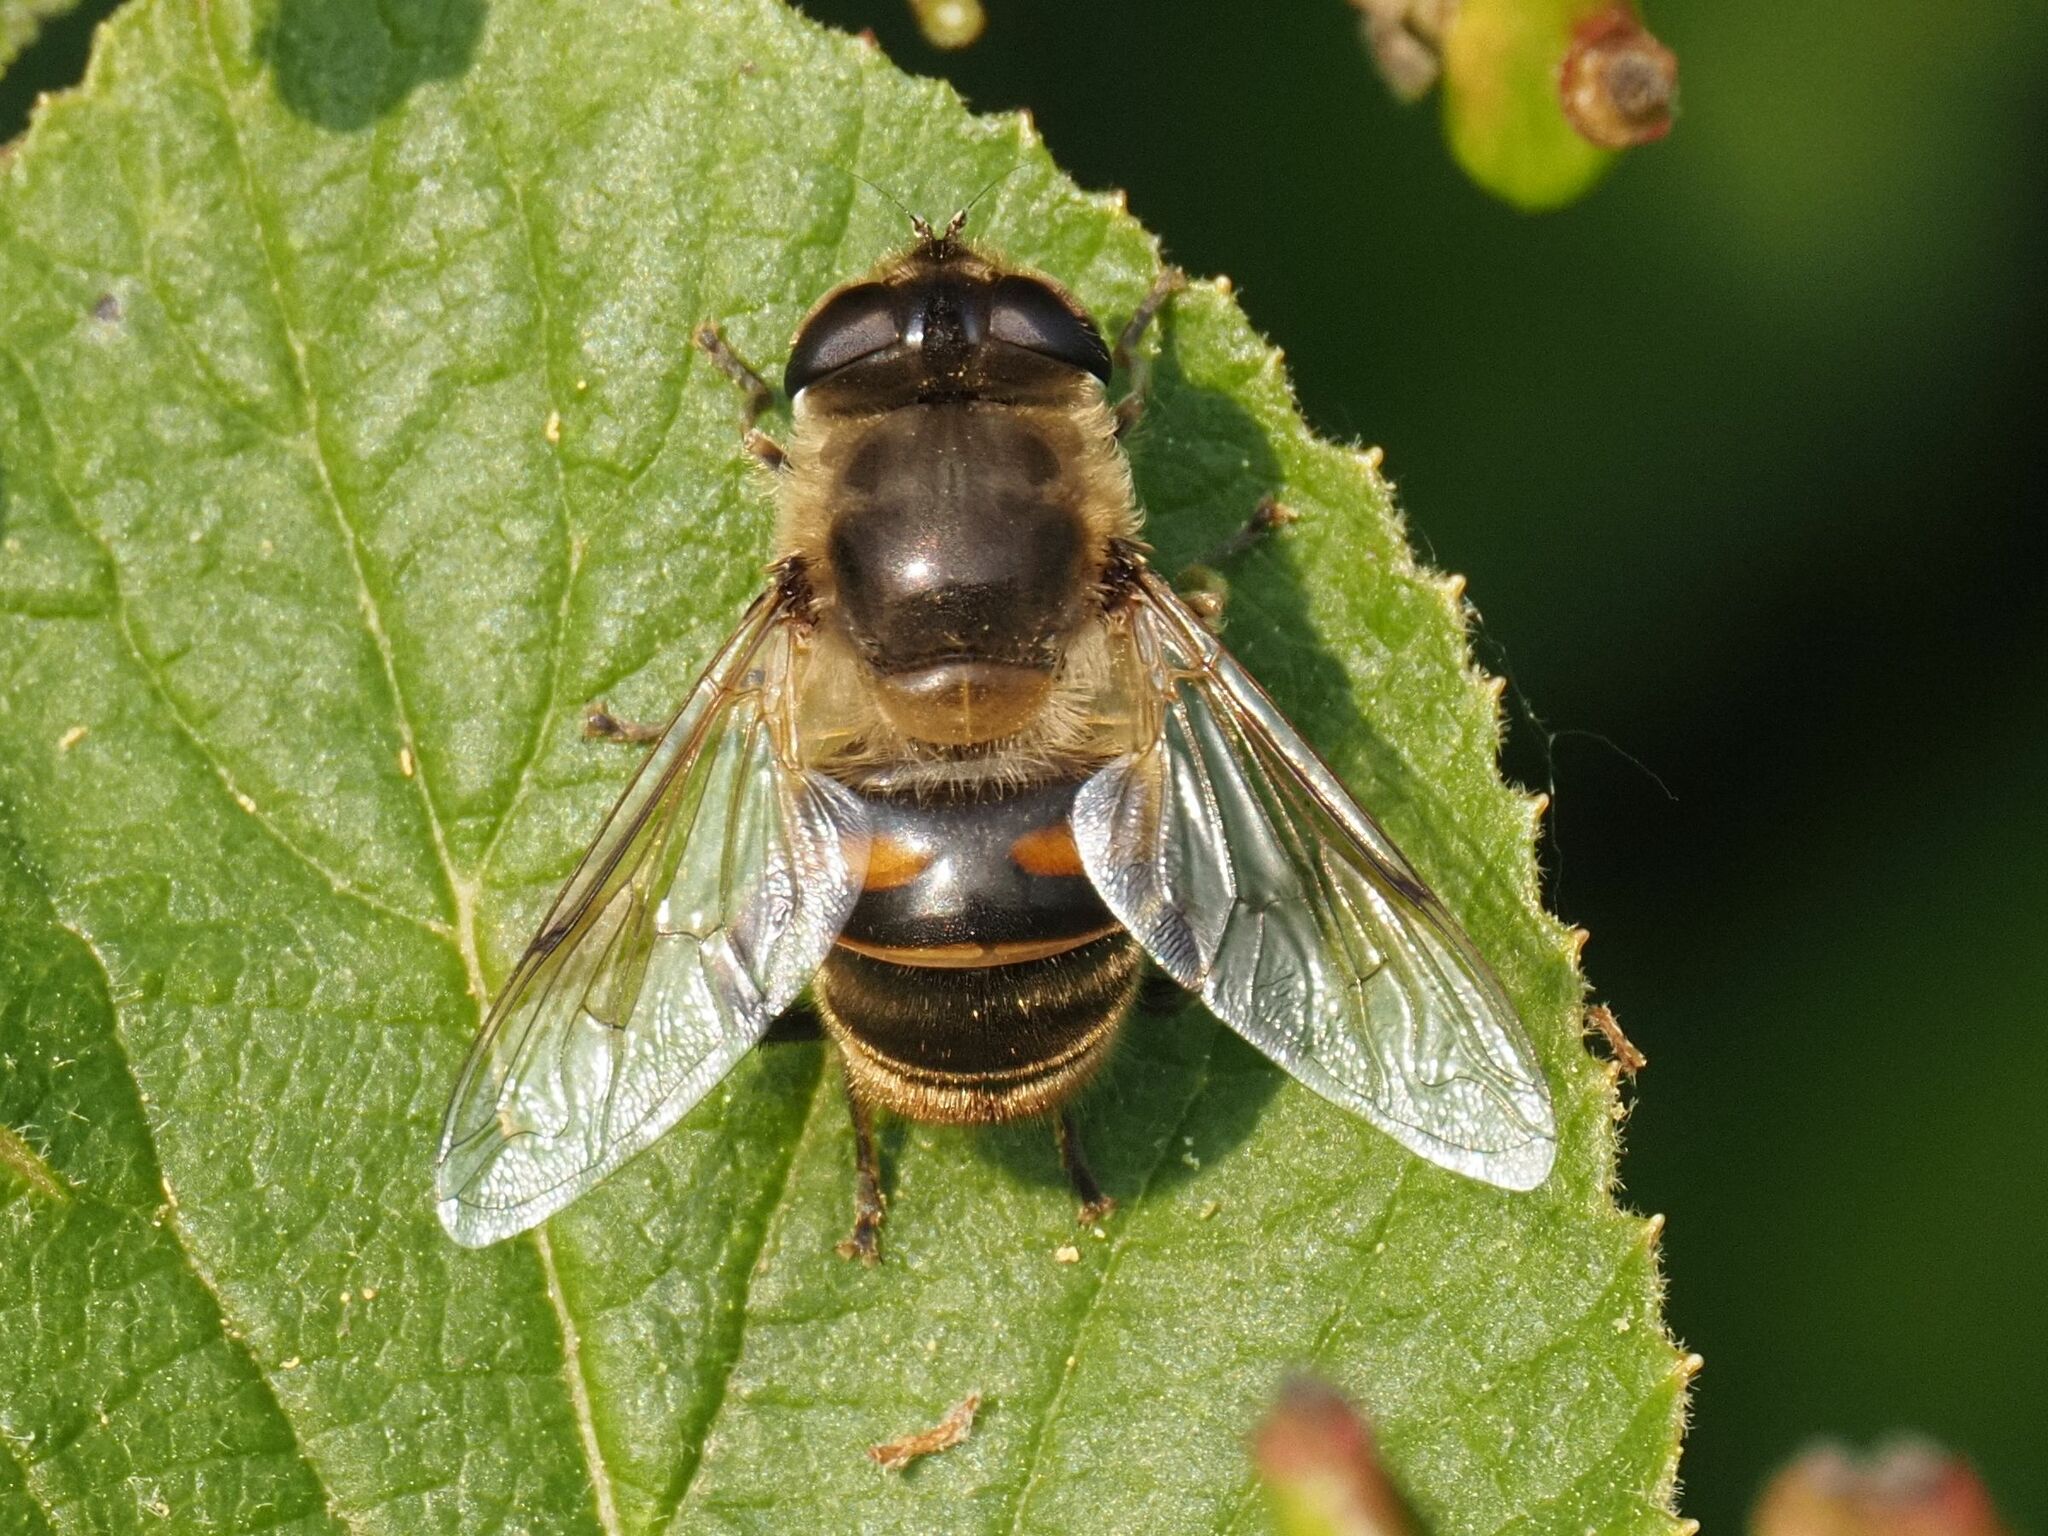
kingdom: Animalia
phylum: Arthropoda
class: Insecta
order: Diptera
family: Syrphidae
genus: Eristalis
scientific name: Eristalis tenax
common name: Drone fly
